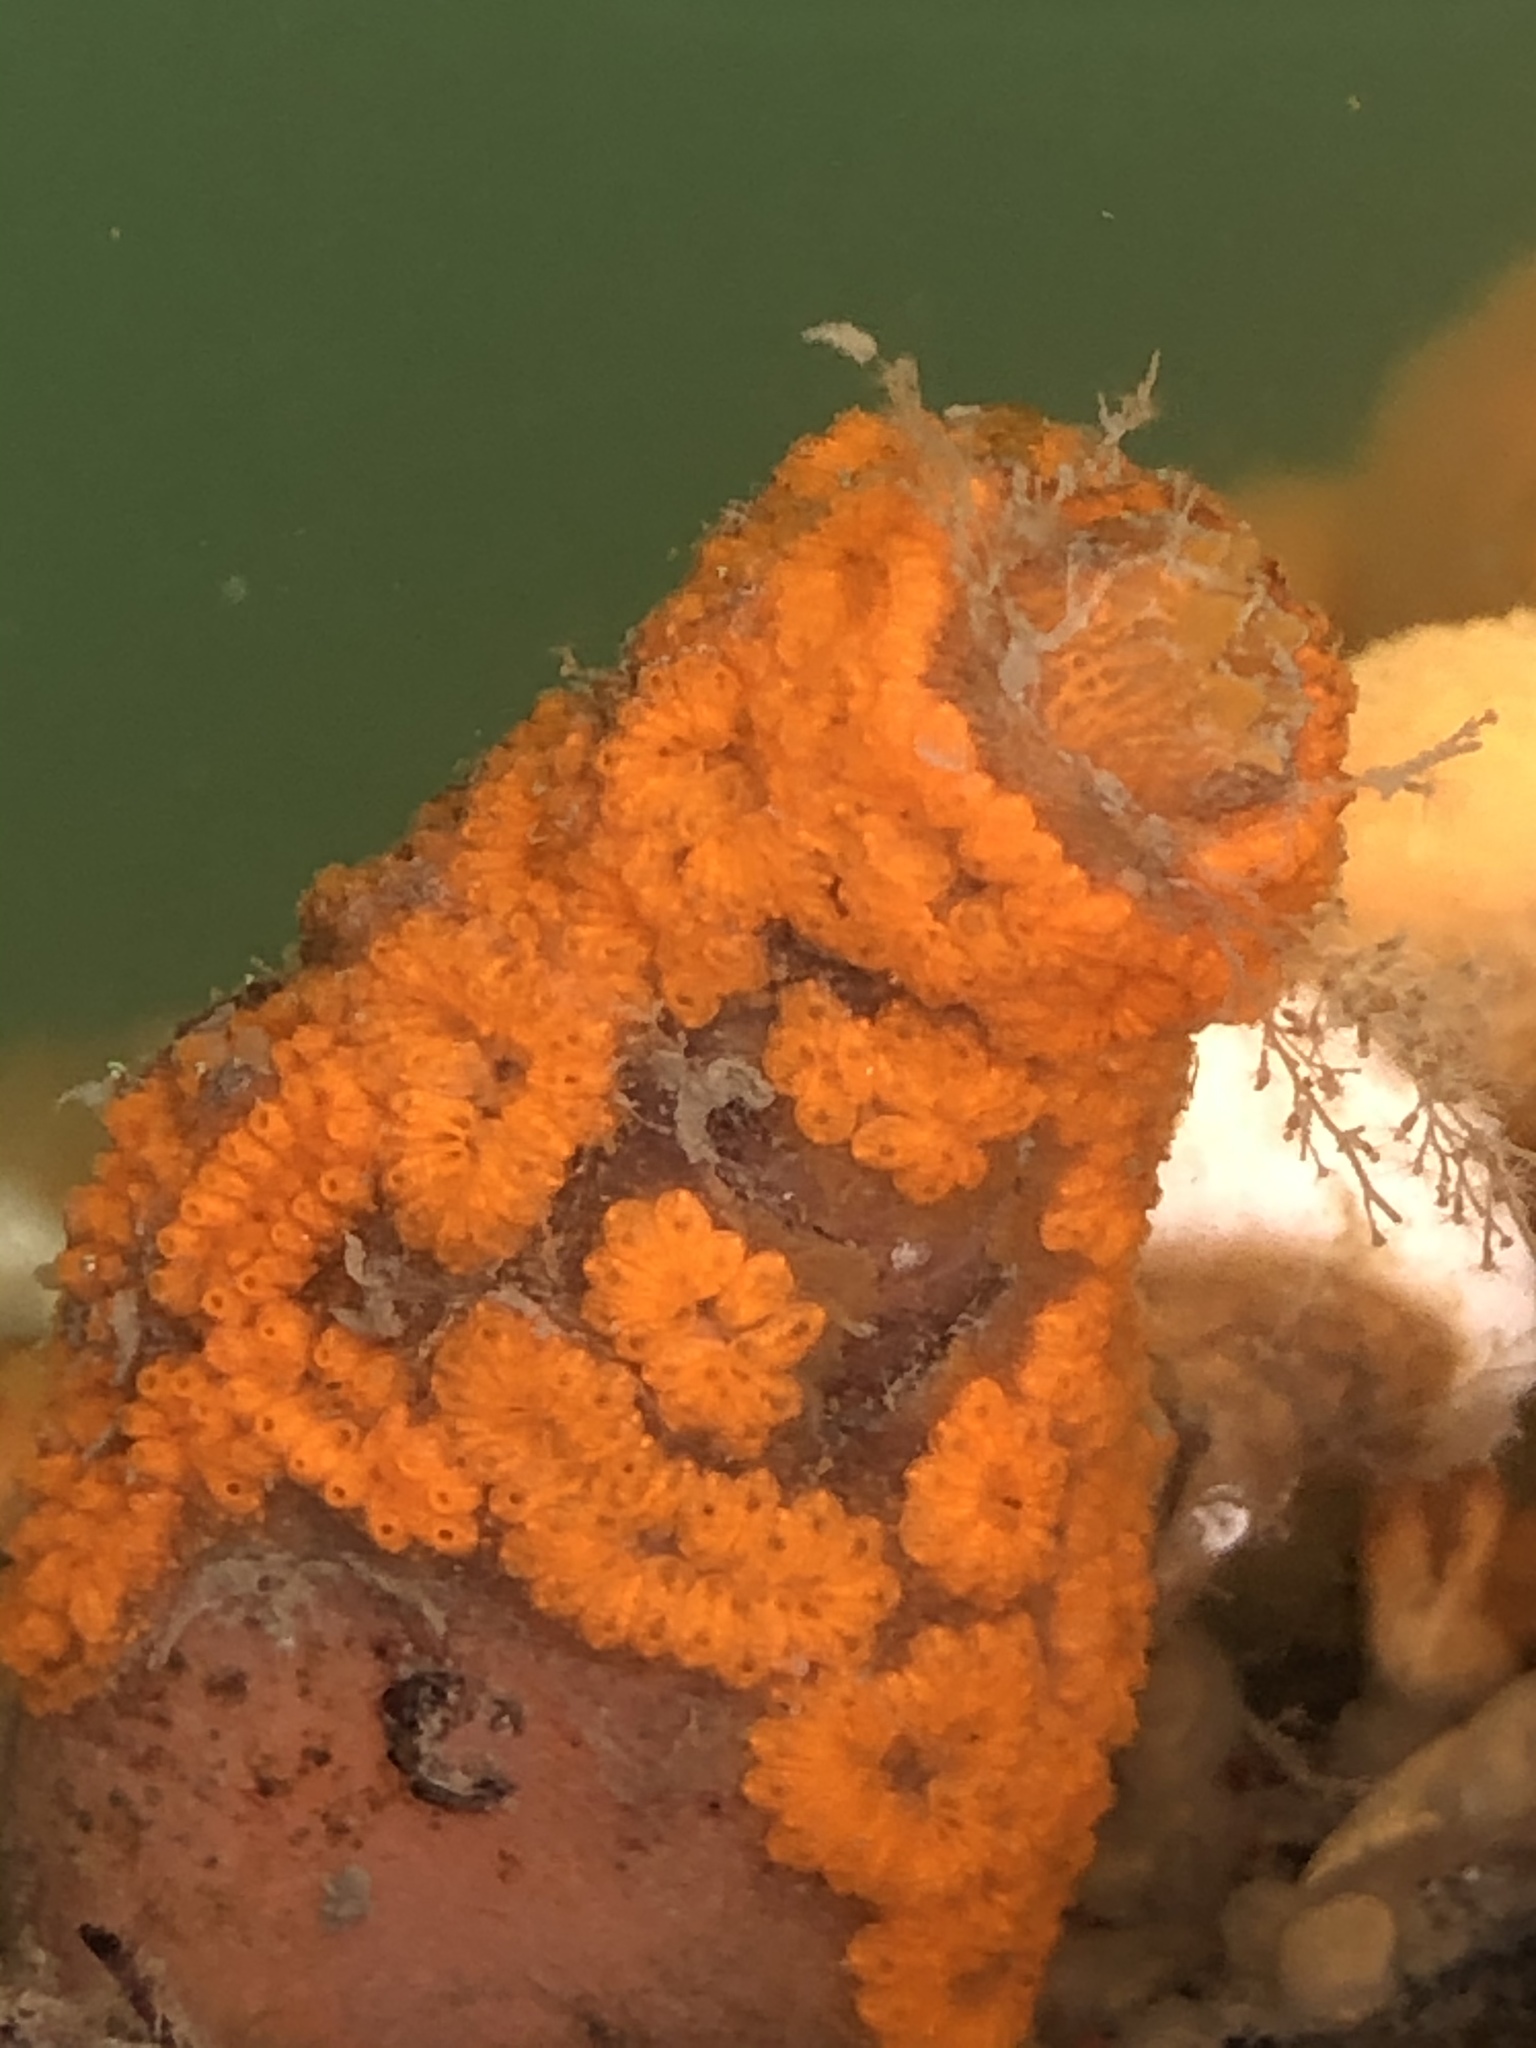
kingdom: Animalia
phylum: Chordata
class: Ascidiacea
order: Stolidobranchia
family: Styelidae
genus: Botrylloides
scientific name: Botrylloides violaceus
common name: Colonial sea squirt
